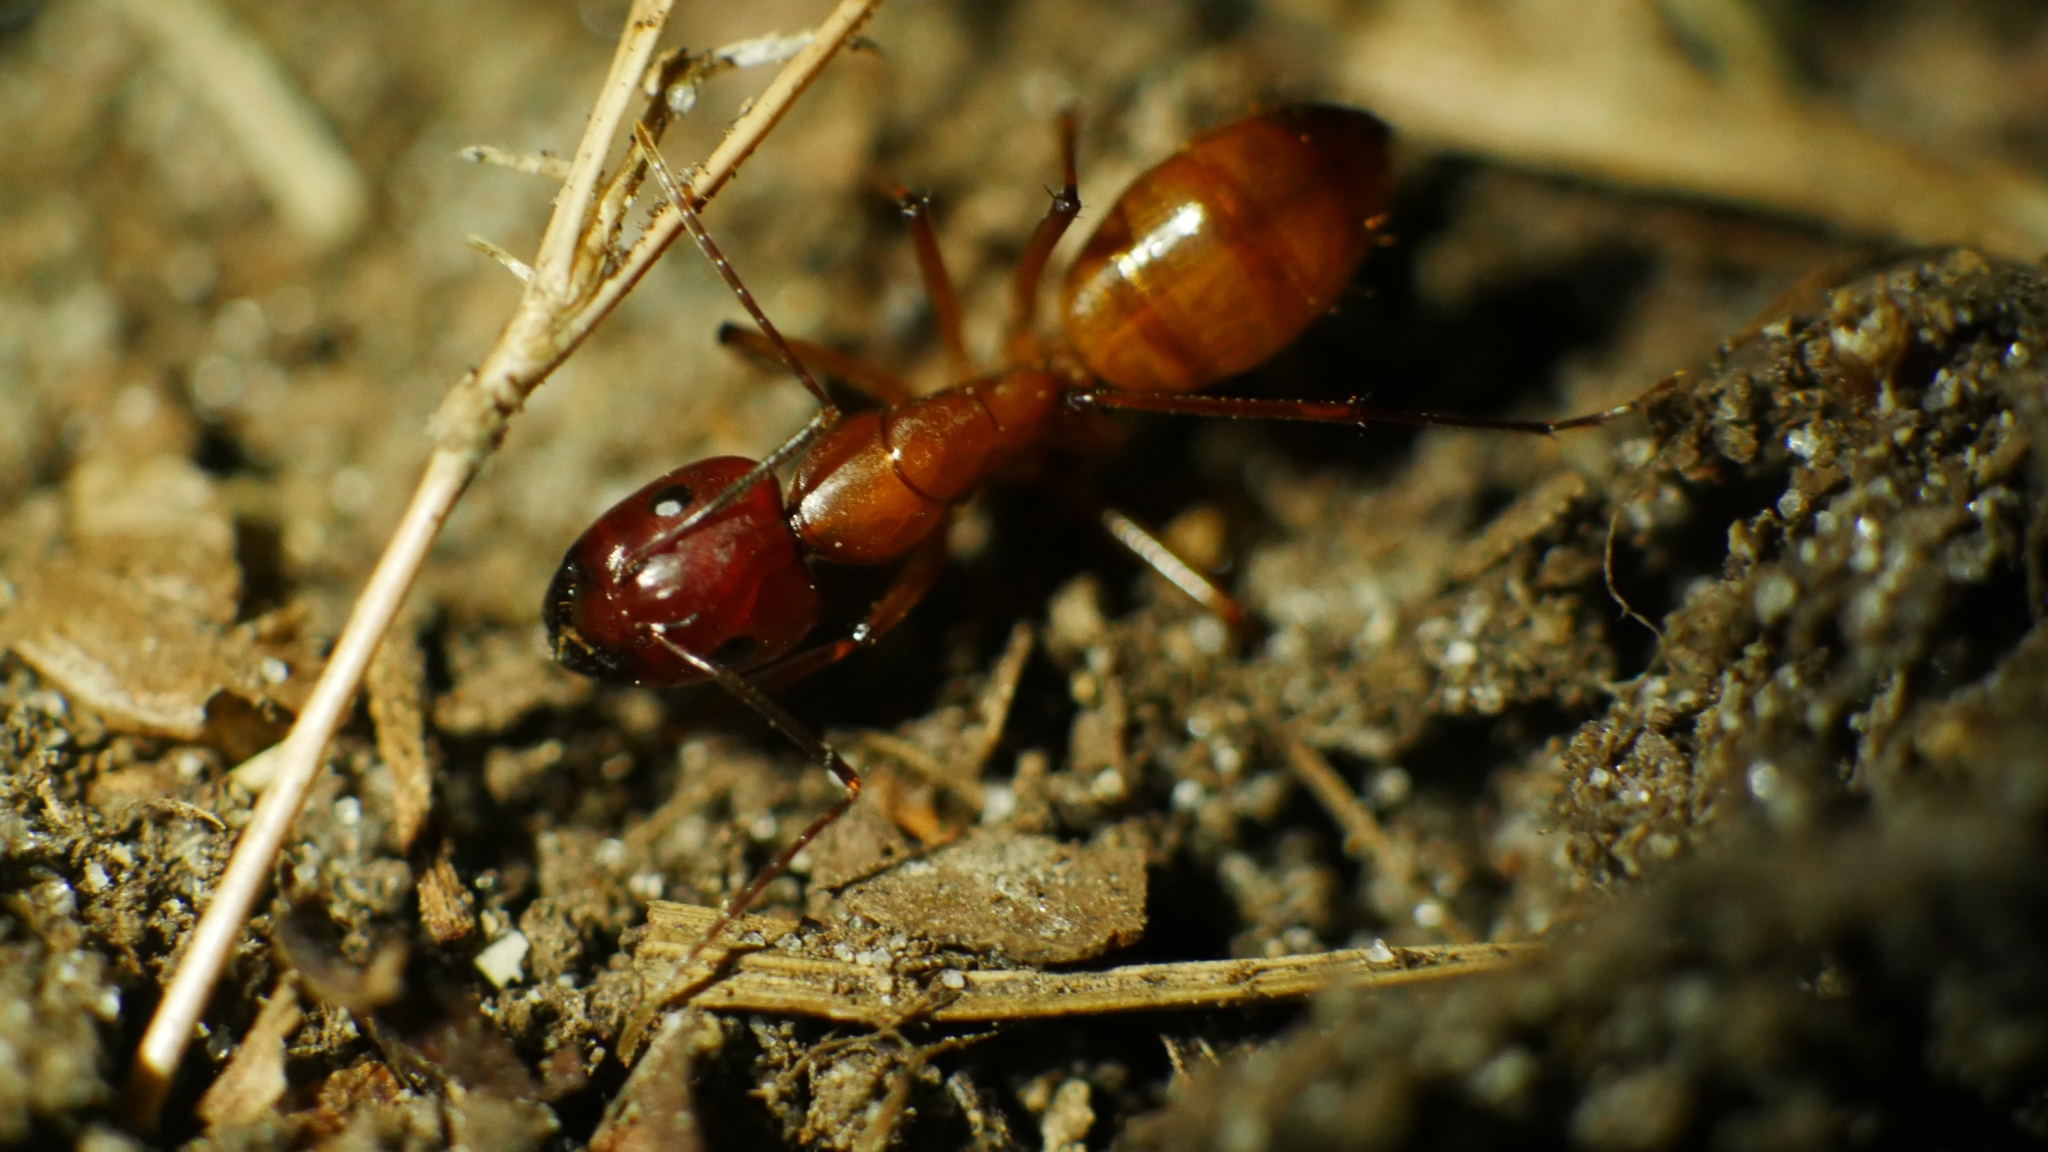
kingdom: Animalia
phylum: Arthropoda
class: Insecta
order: Hymenoptera
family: Formicidae
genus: Camponotus
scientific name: Camponotus castaneus
